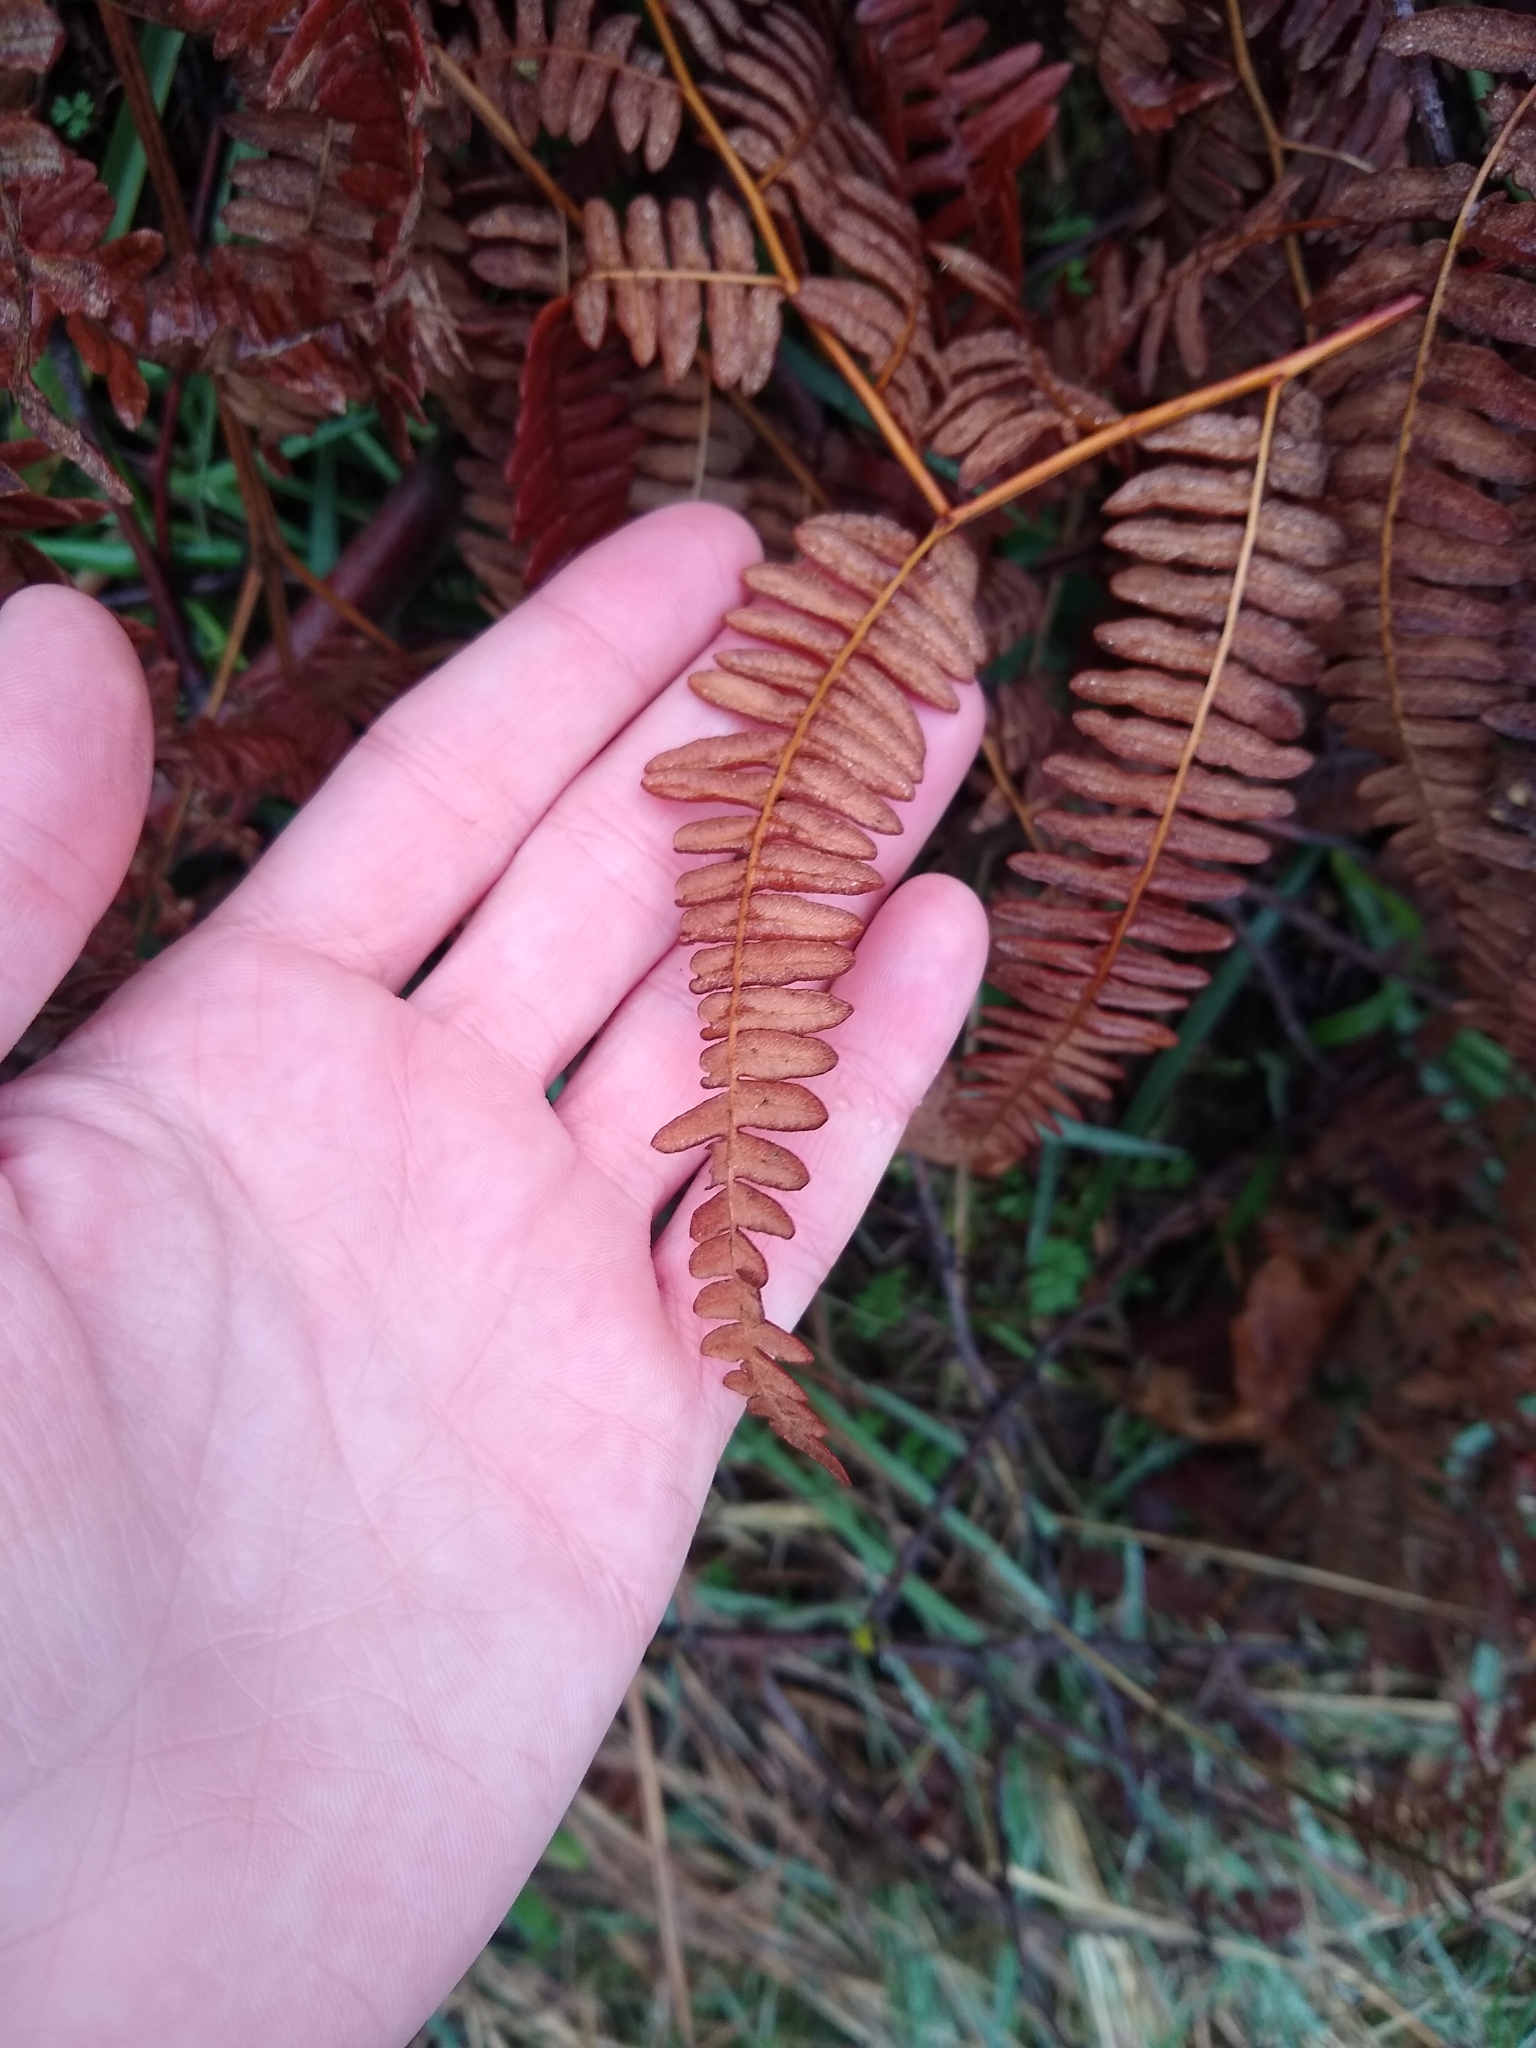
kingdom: Plantae
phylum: Tracheophyta
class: Polypodiopsida
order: Polypodiales
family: Dennstaedtiaceae
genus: Pteridium
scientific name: Pteridium aquilinum
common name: Bracken
